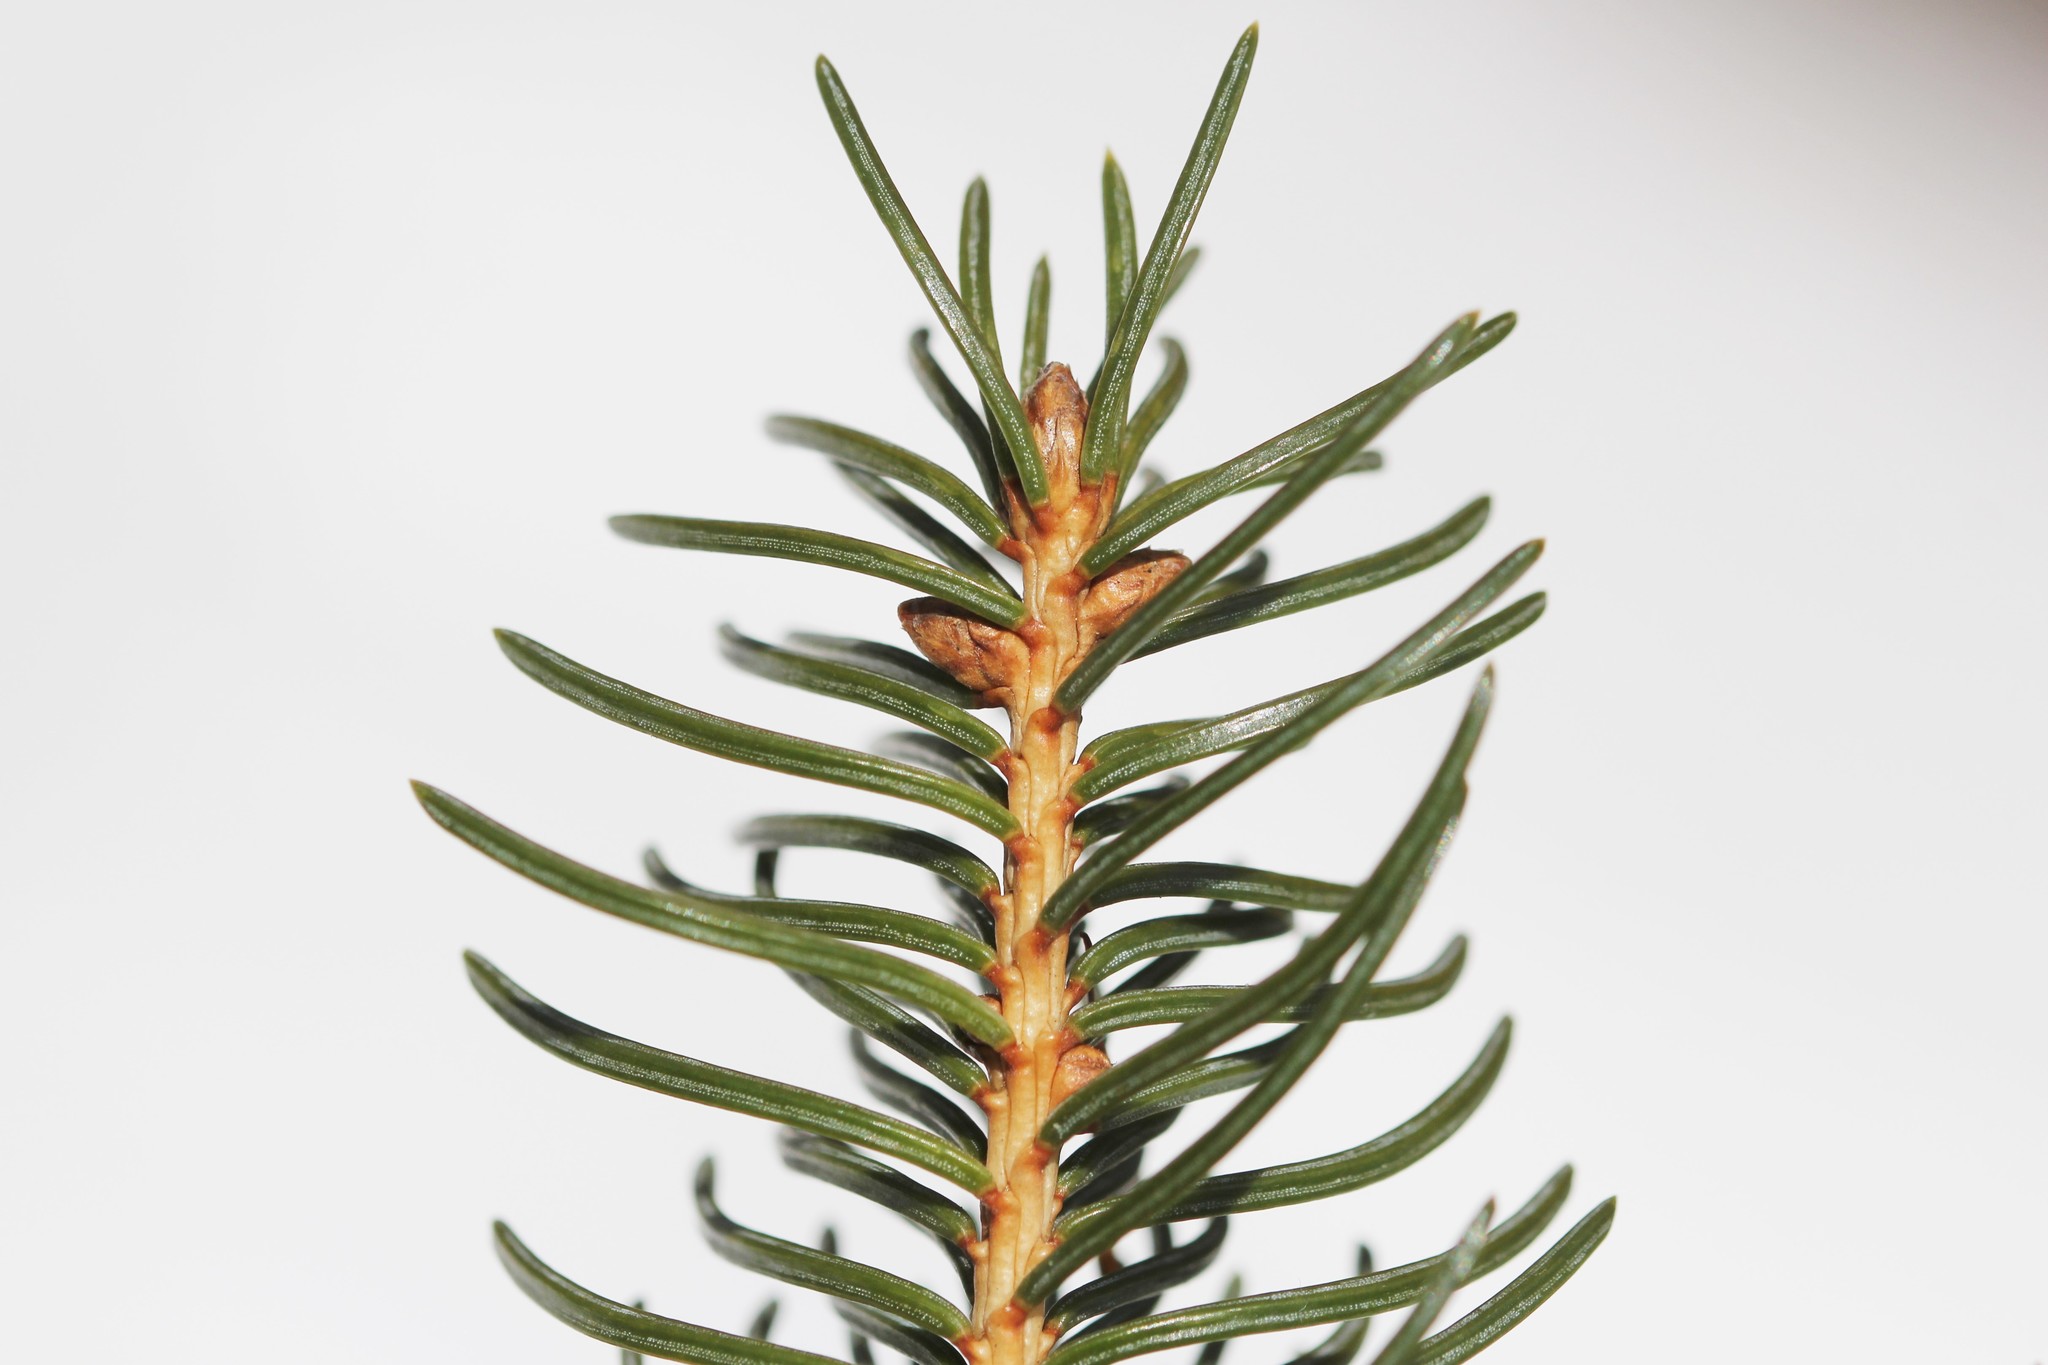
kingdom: Plantae
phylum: Tracheophyta
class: Pinopsida
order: Pinales
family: Pinaceae
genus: Picea
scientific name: Picea glauca
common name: White spruce
